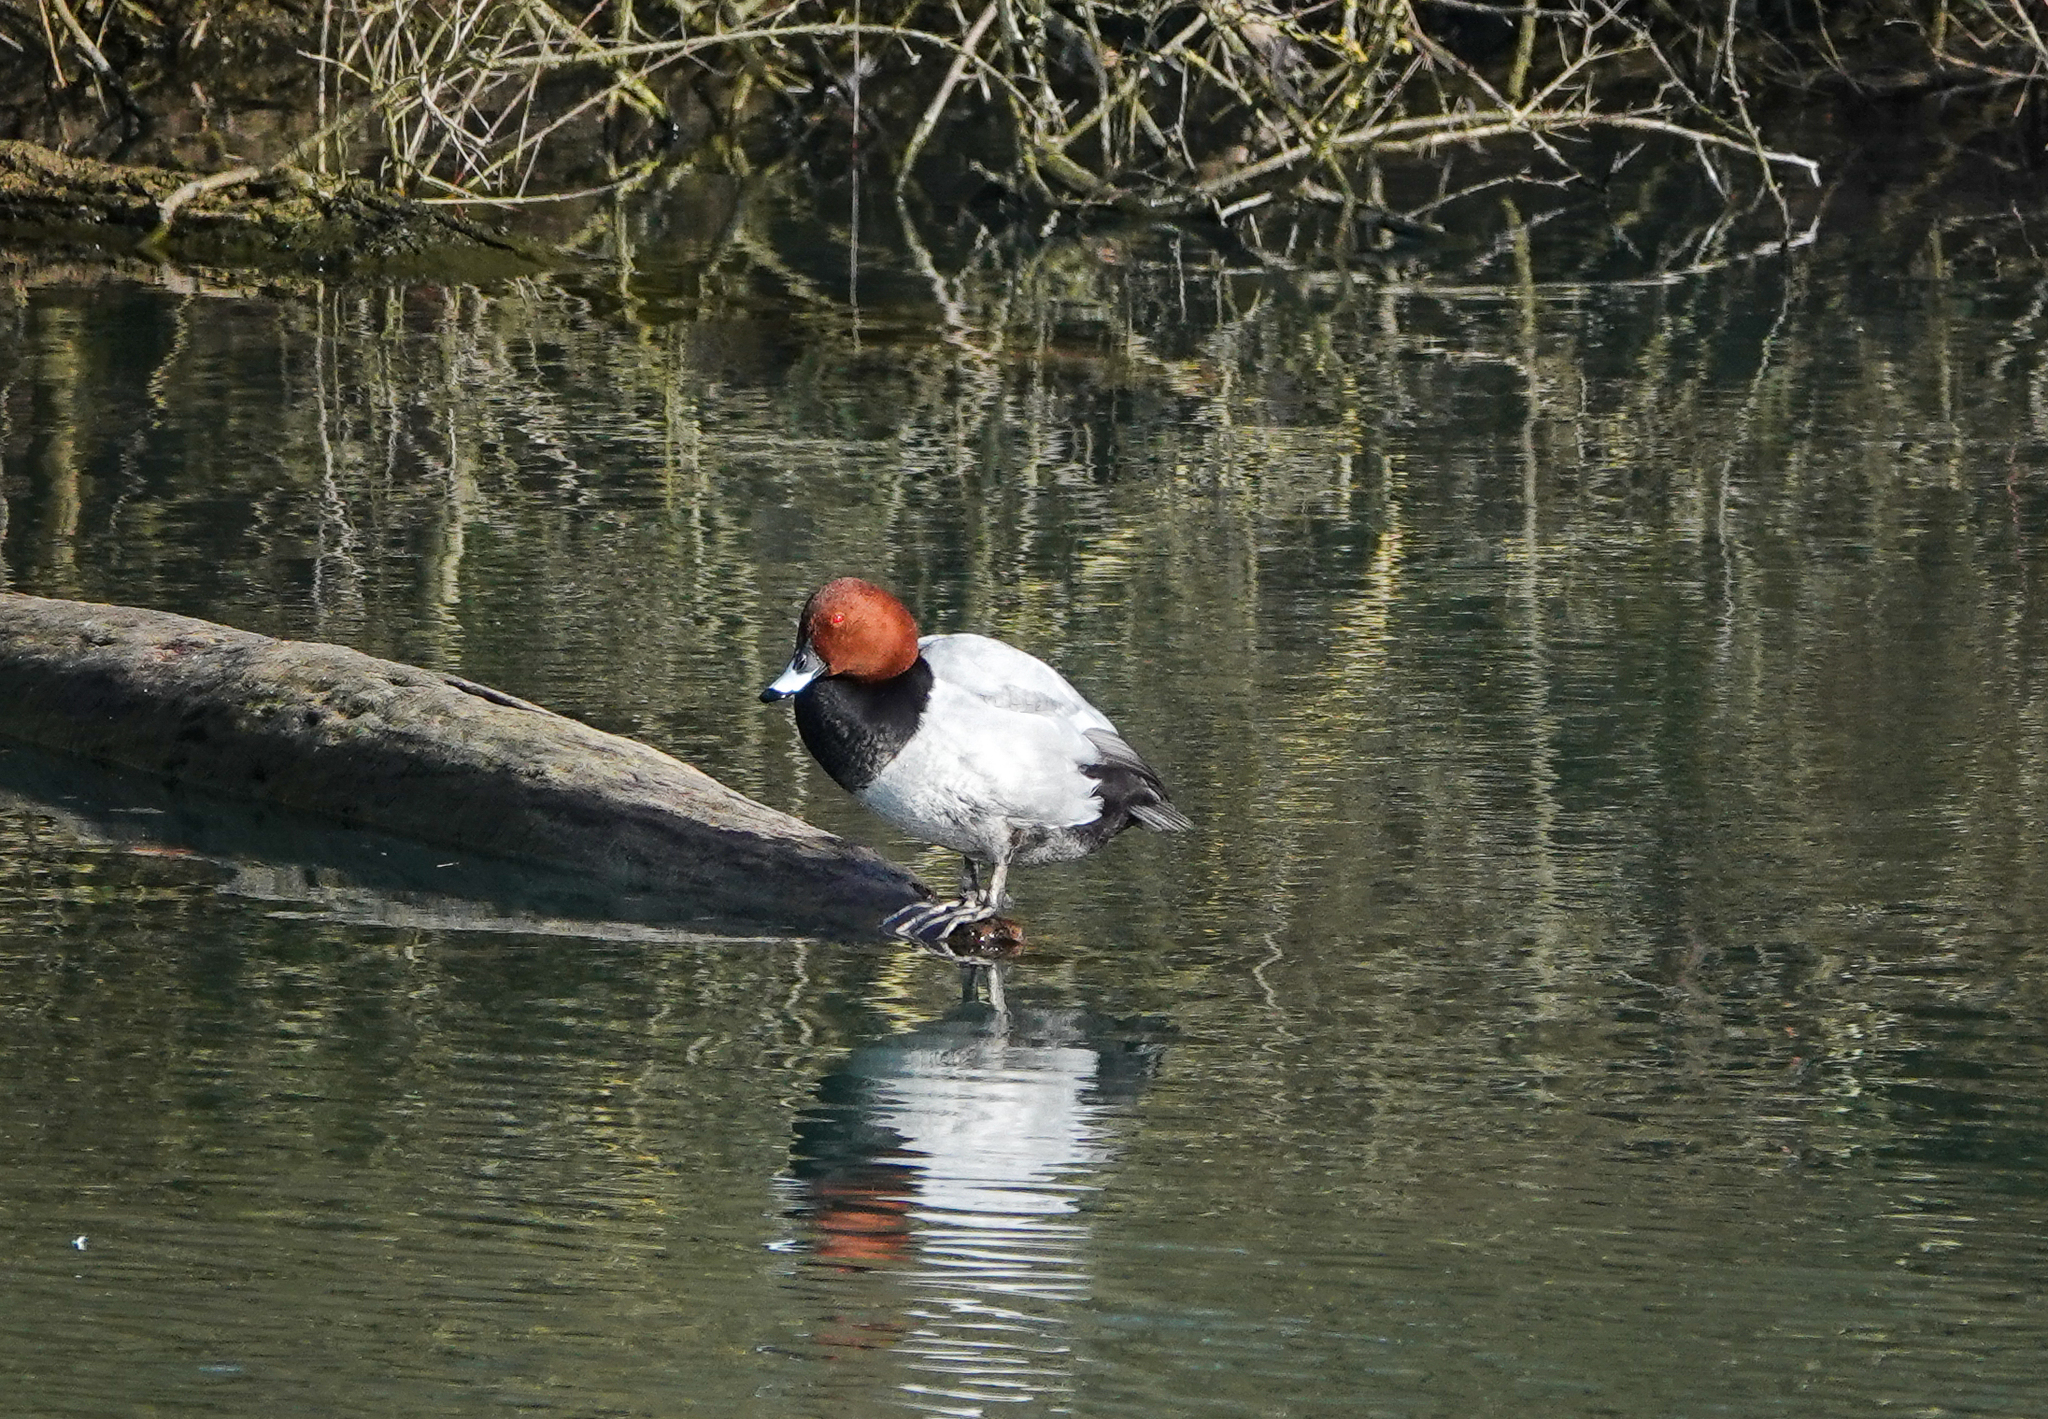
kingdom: Animalia
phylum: Chordata
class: Aves
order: Anseriformes
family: Anatidae
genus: Aythya
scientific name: Aythya ferina
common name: Common pochard
